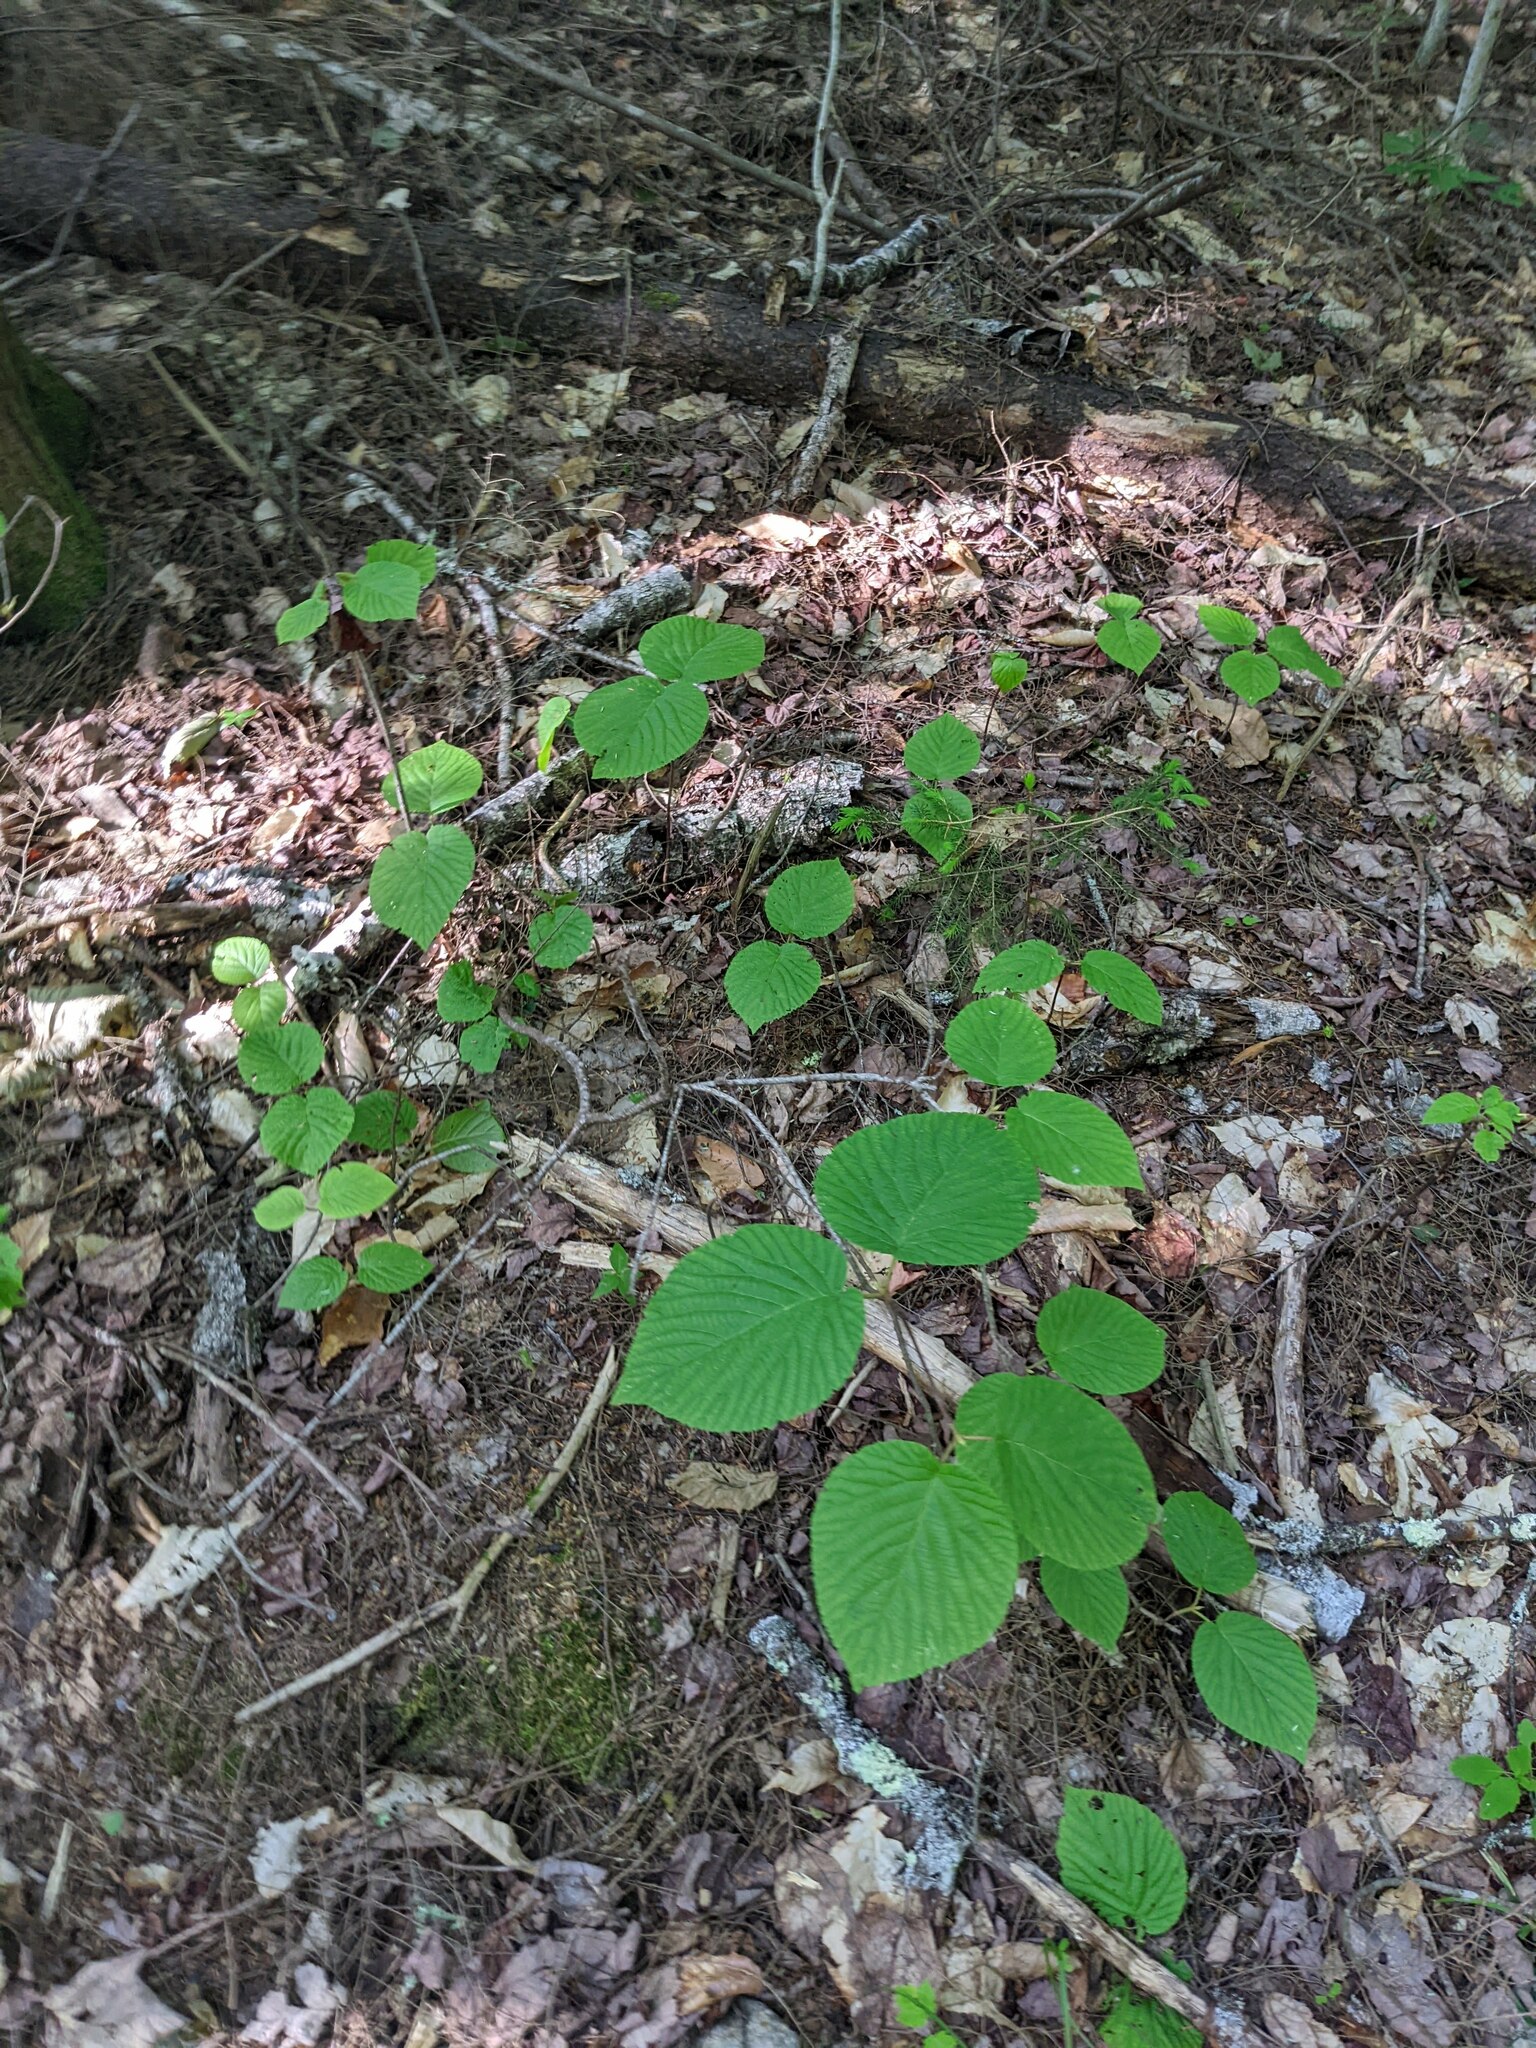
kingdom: Plantae
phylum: Tracheophyta
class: Magnoliopsida
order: Dipsacales
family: Viburnaceae
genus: Viburnum
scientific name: Viburnum lantanoides
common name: Hobblebush
